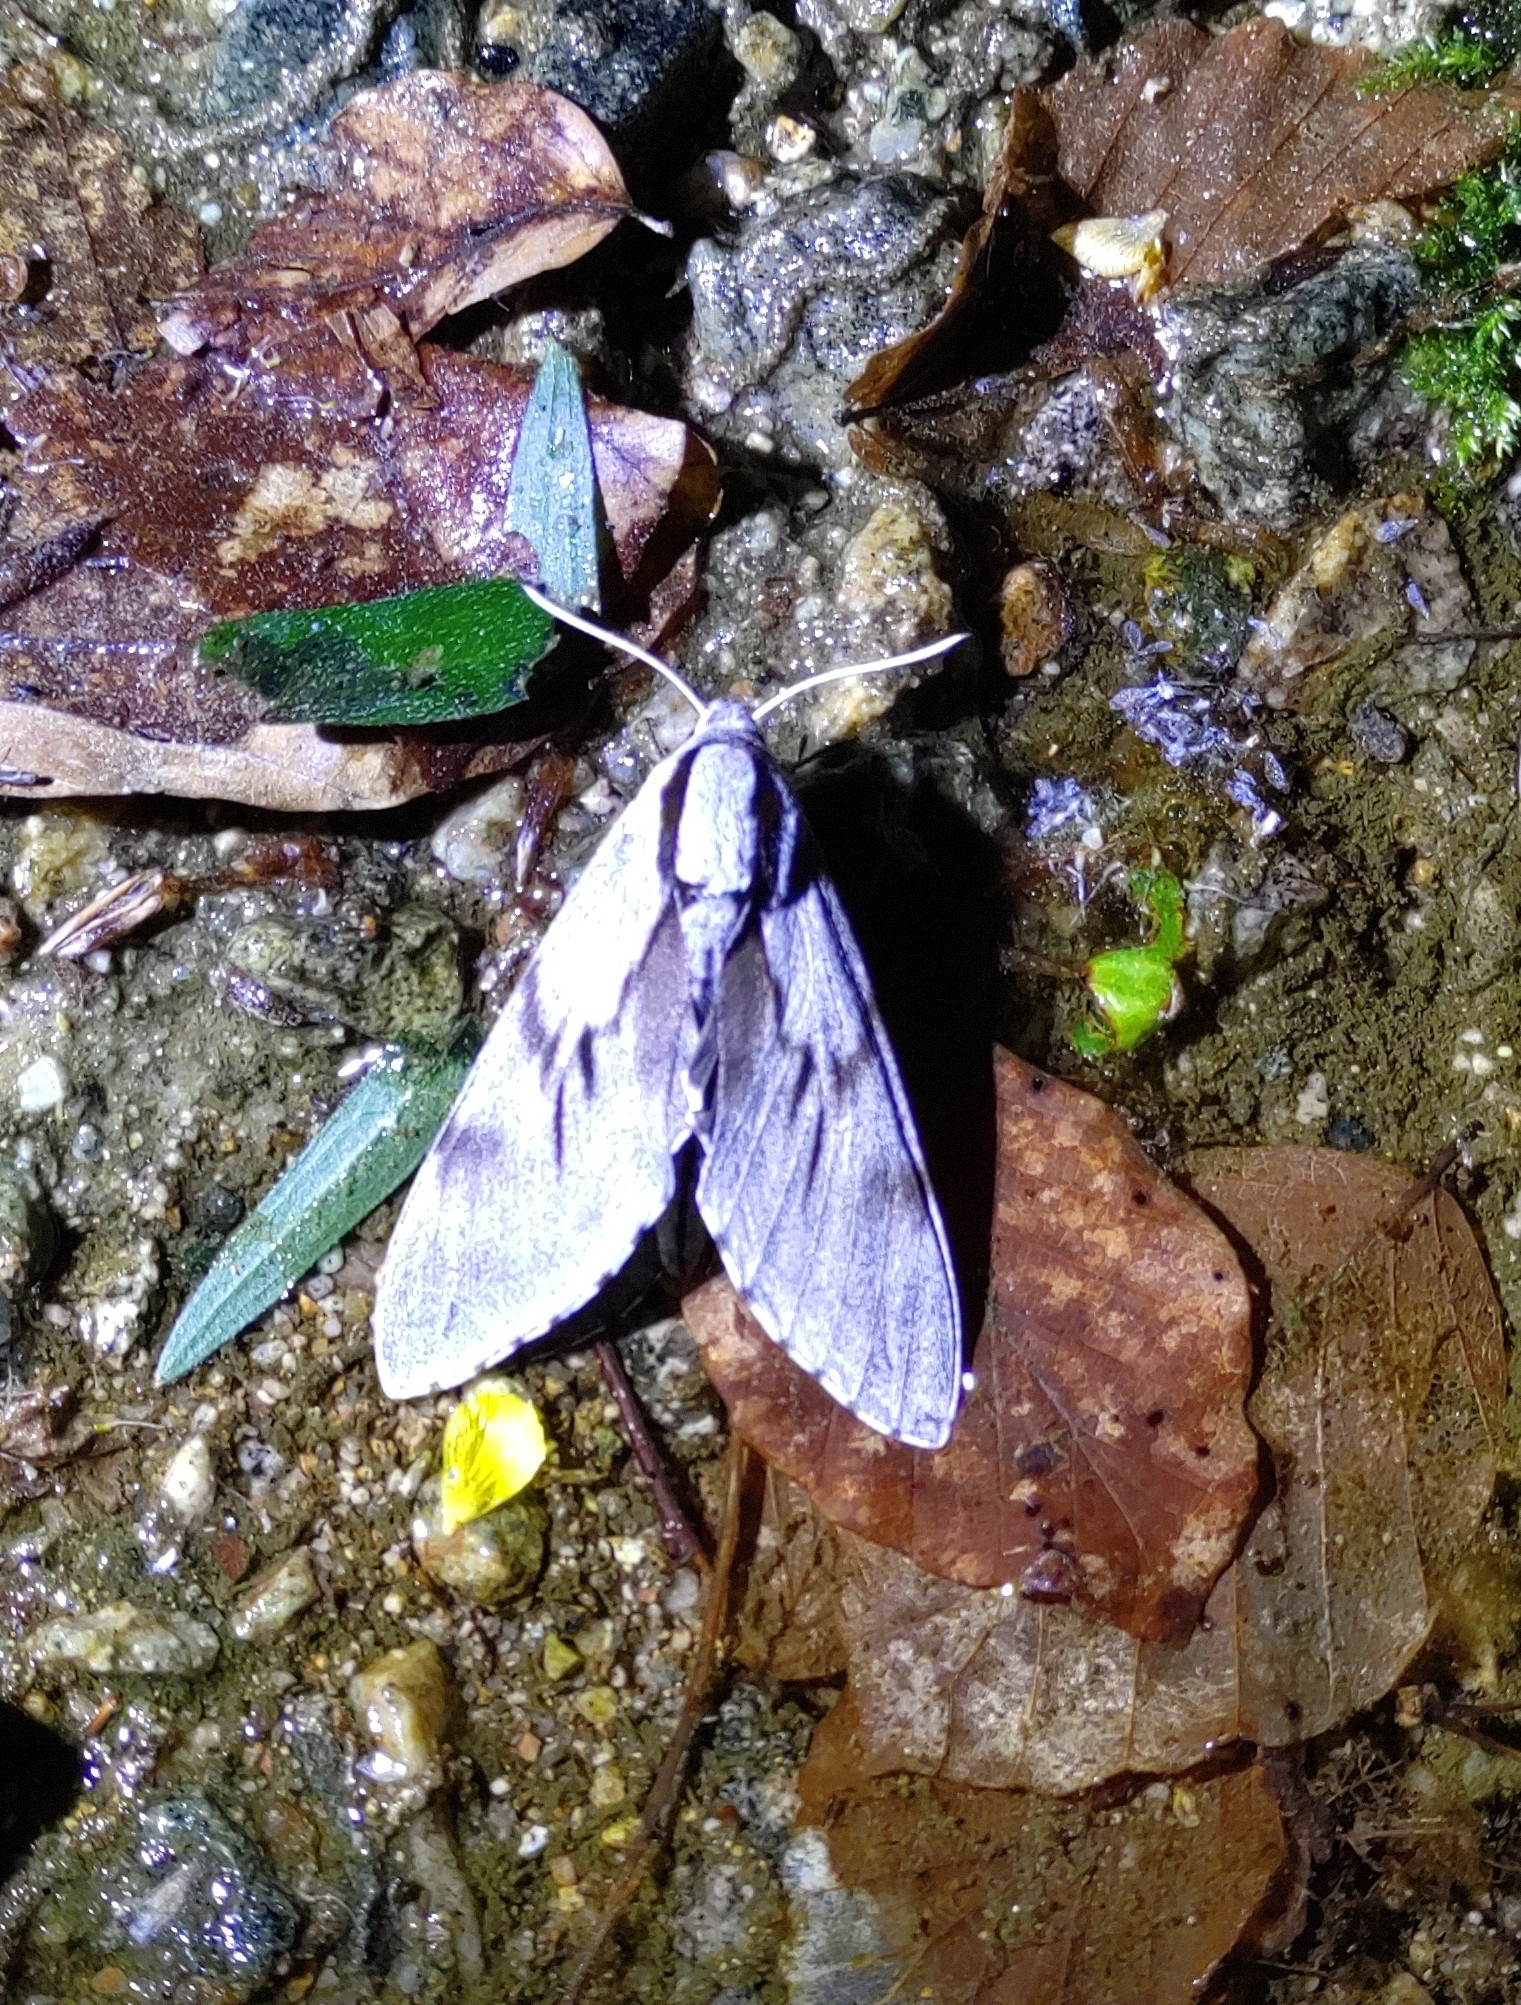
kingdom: Animalia
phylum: Arthropoda
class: Insecta
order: Lepidoptera
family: Sphingidae
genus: Sphinx
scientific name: Sphinx pinastri
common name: Pine hawk-moth
